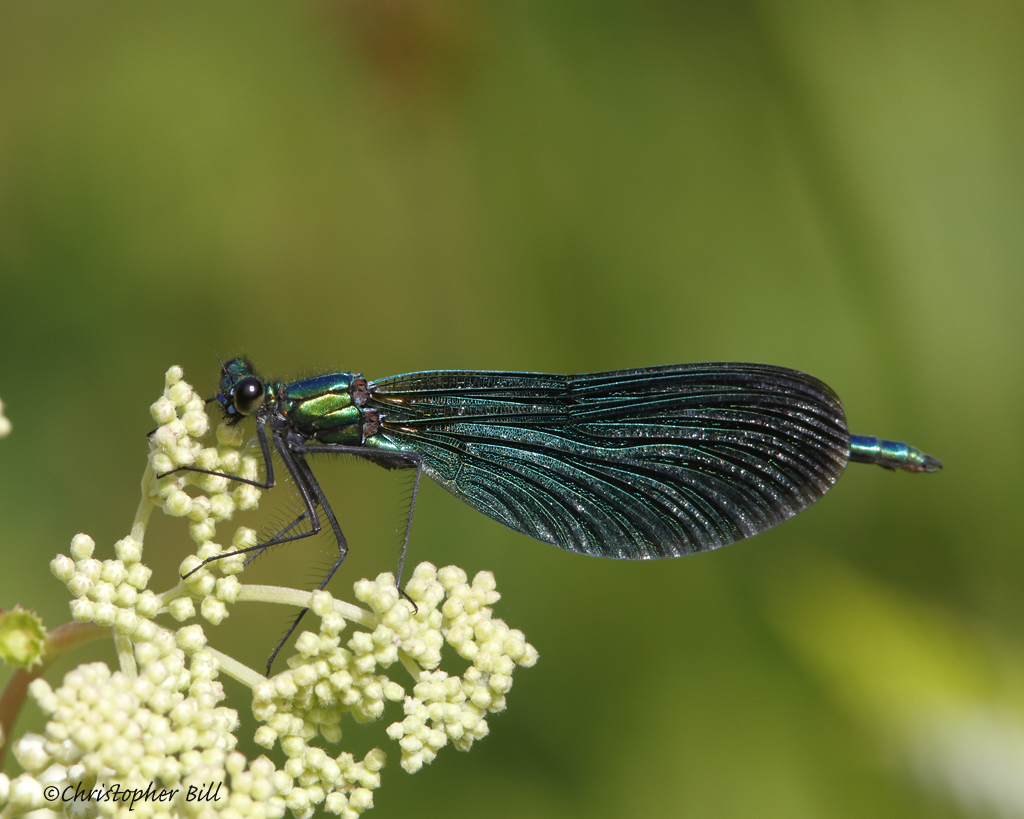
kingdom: Animalia
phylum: Arthropoda
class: Insecta
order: Odonata
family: Calopterygidae
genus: Calopteryx
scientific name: Calopteryx virgo
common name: Beautiful demoiselle
